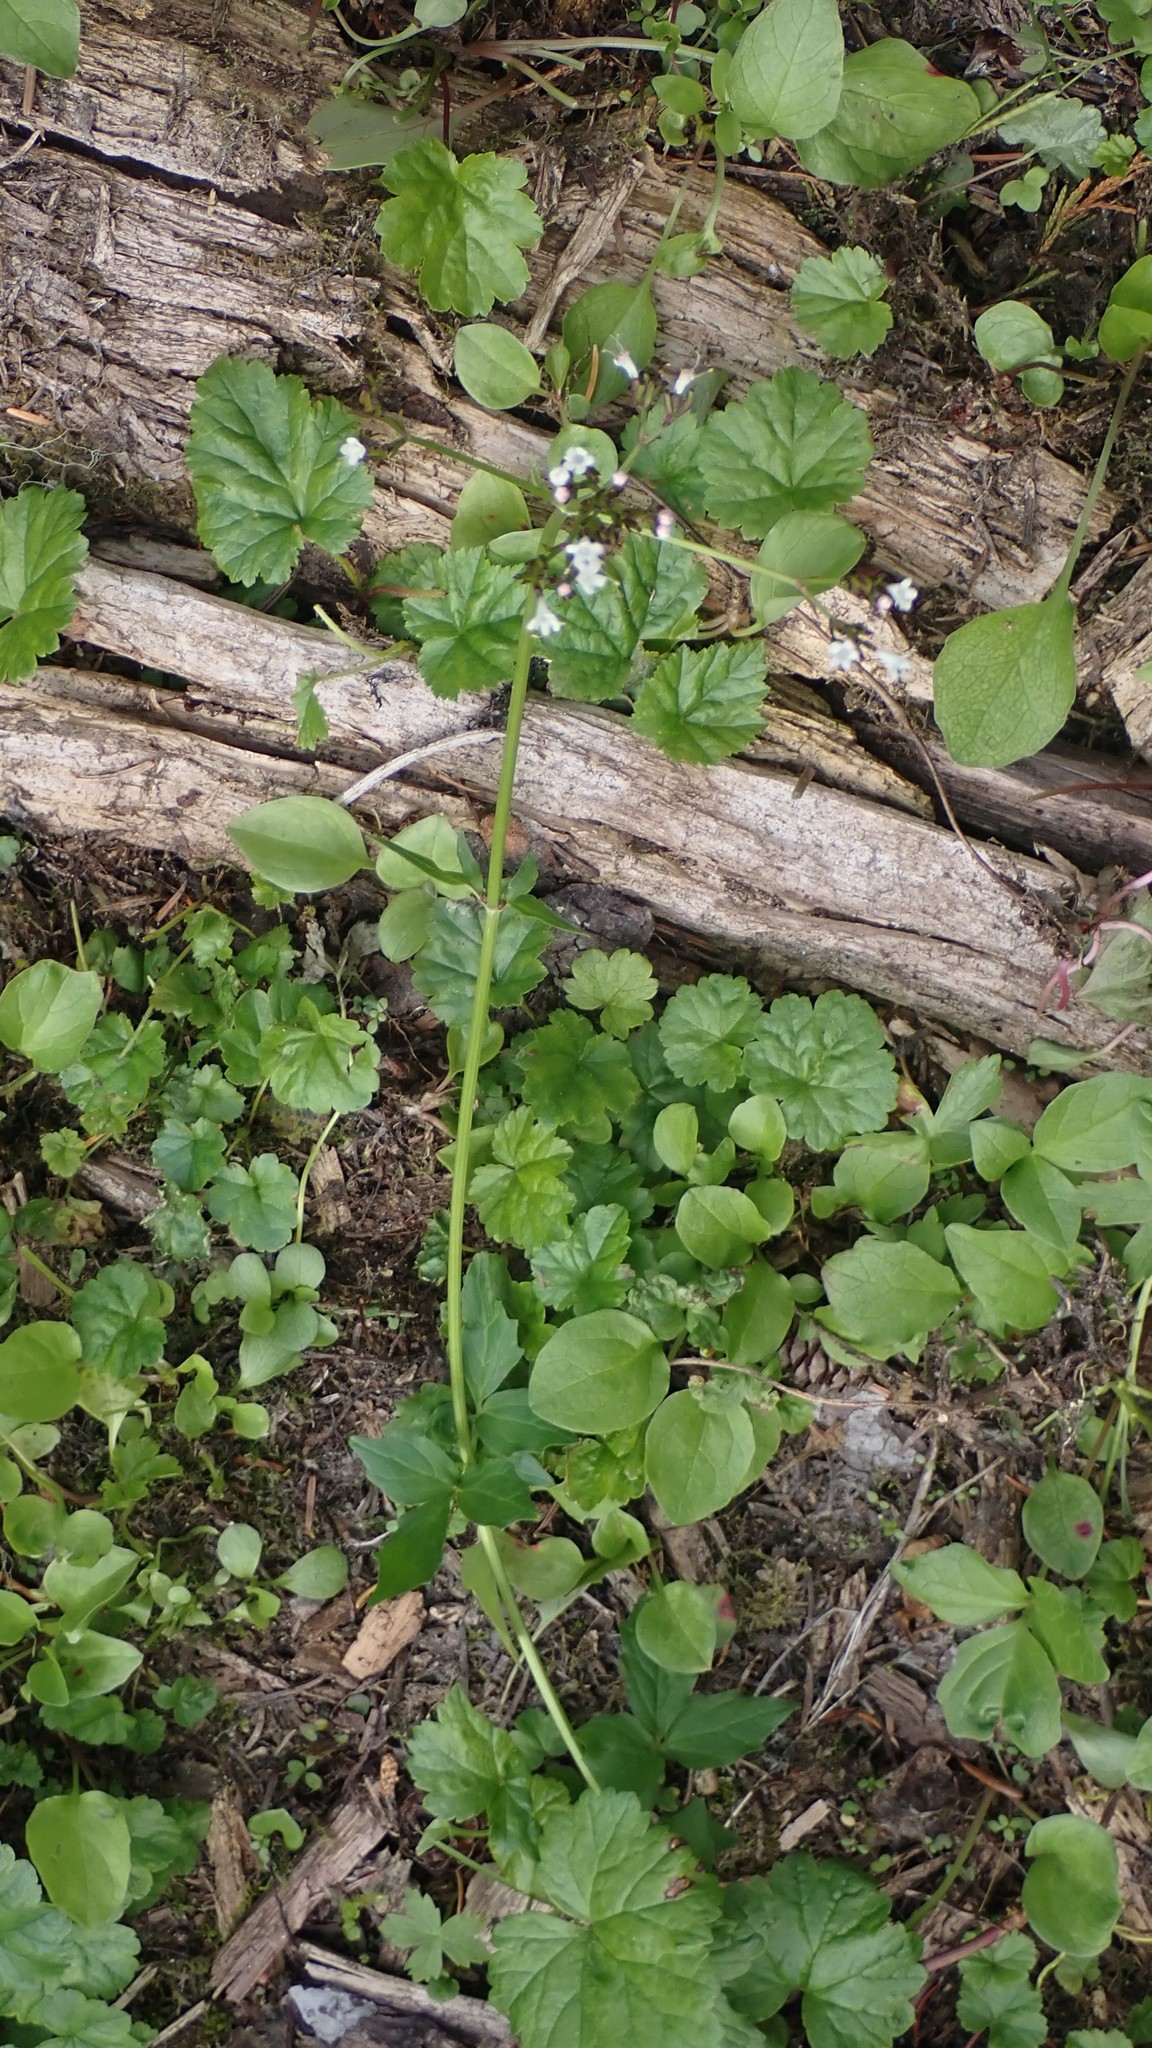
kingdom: Plantae
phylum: Tracheophyta
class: Magnoliopsida
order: Dipsacales
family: Caprifoliaceae
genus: Valeriana
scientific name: Valeriana sitchensis
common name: Pacific valerian
